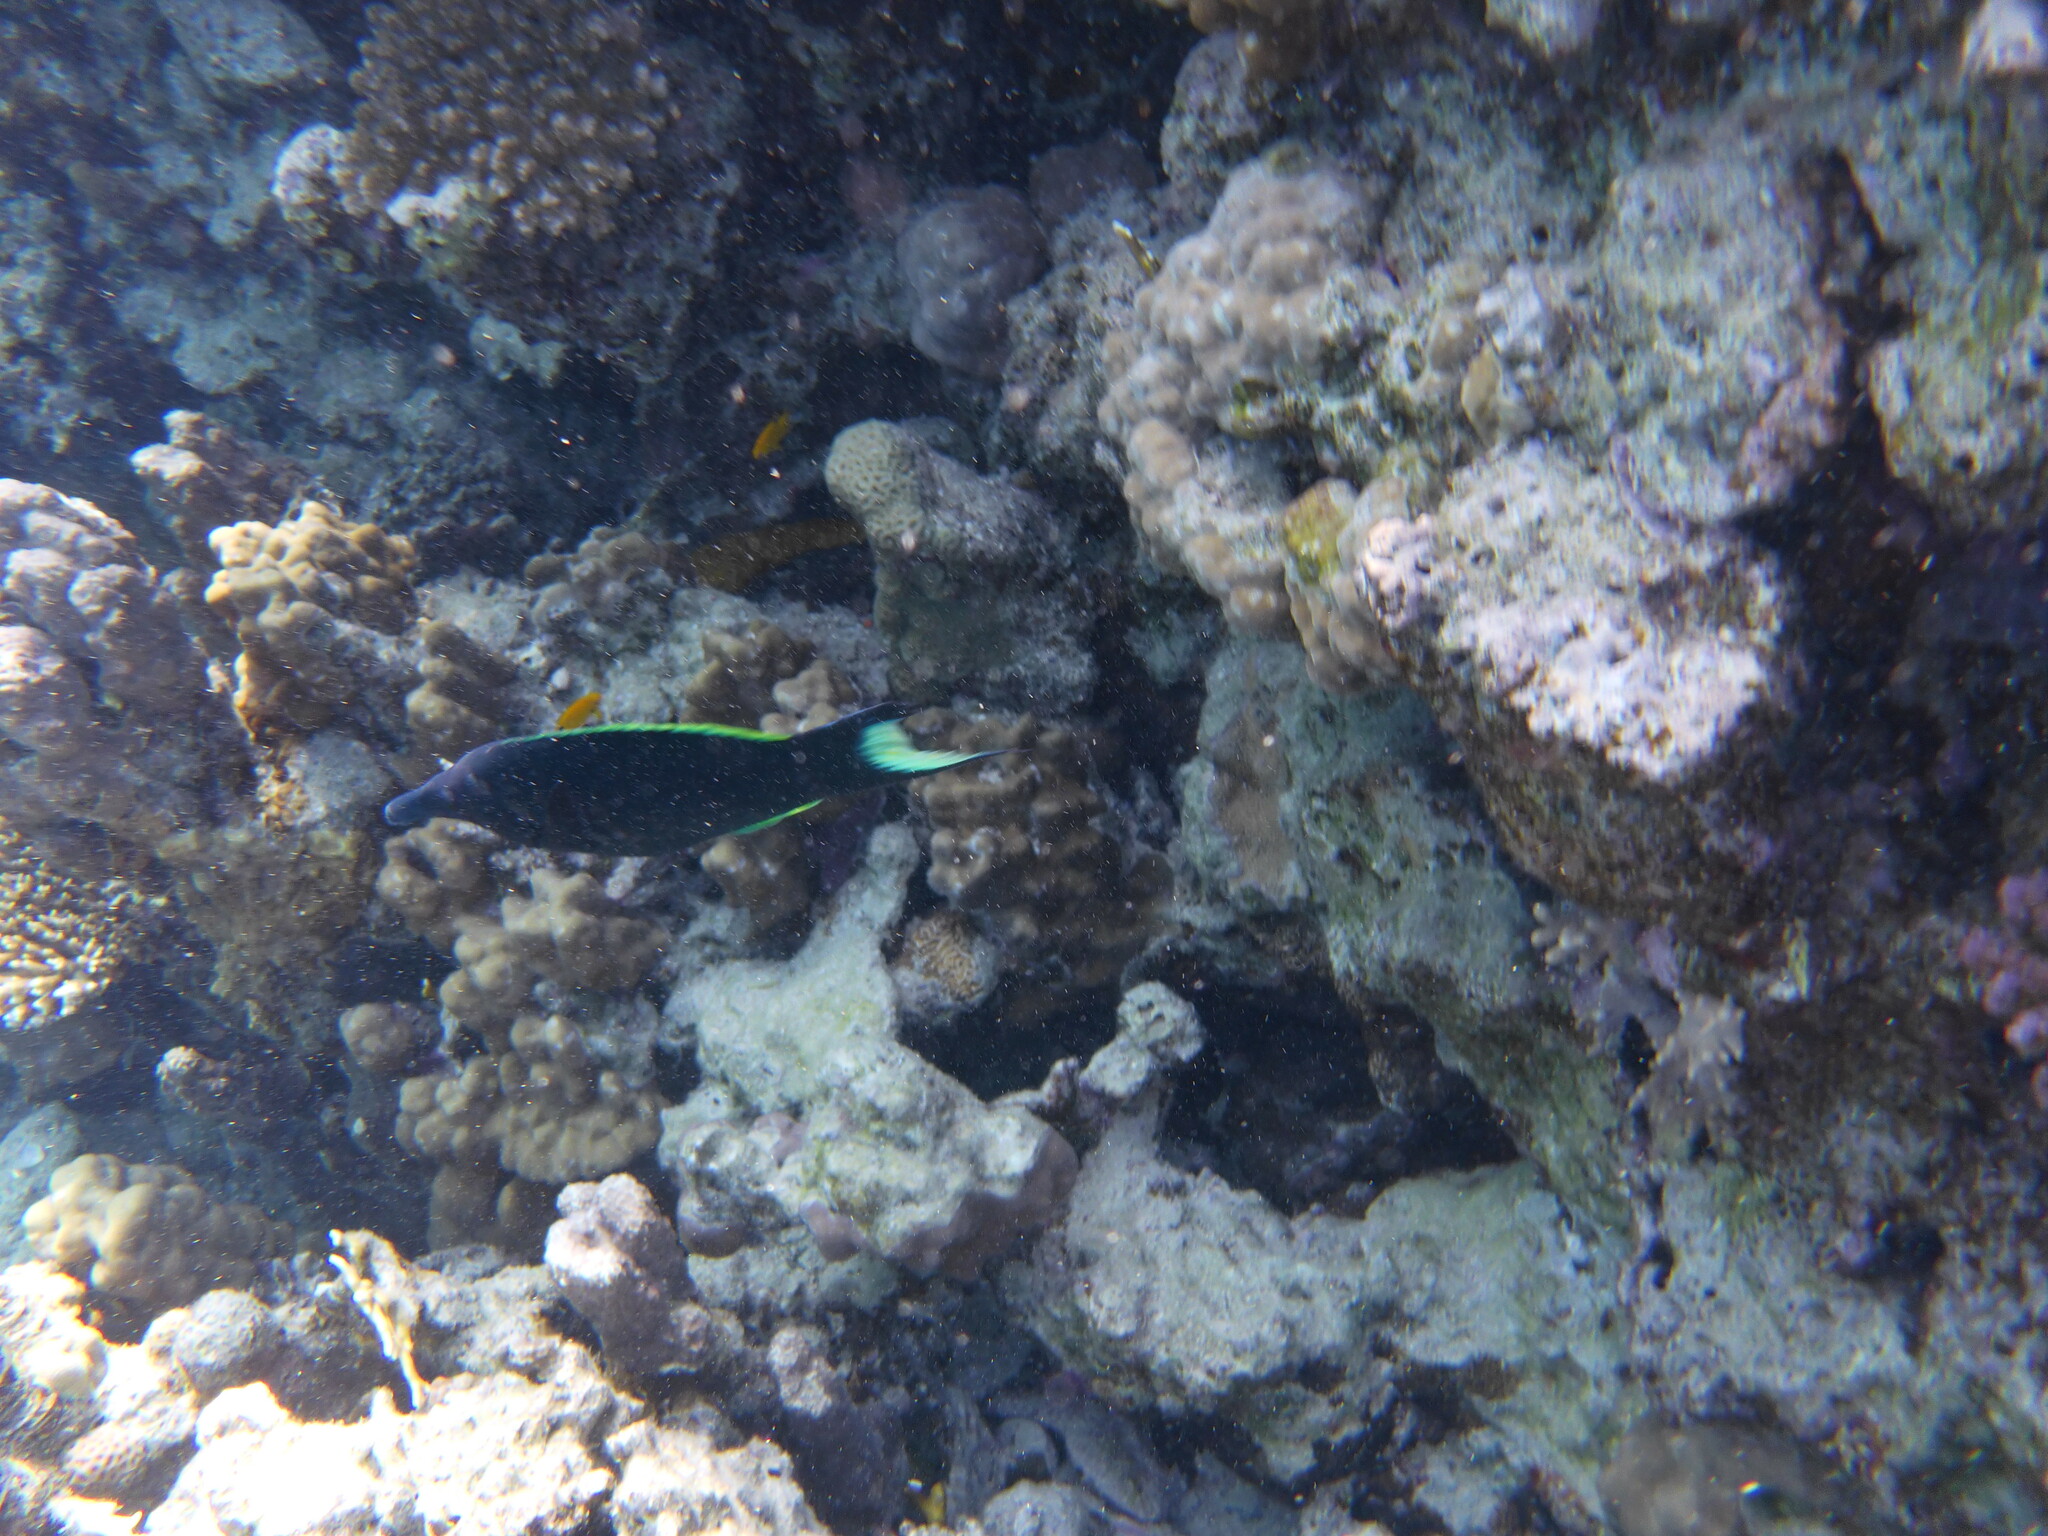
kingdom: Animalia
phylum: Chordata
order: Perciformes
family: Labridae
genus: Gomphosus
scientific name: Gomphosus klunzingeri
